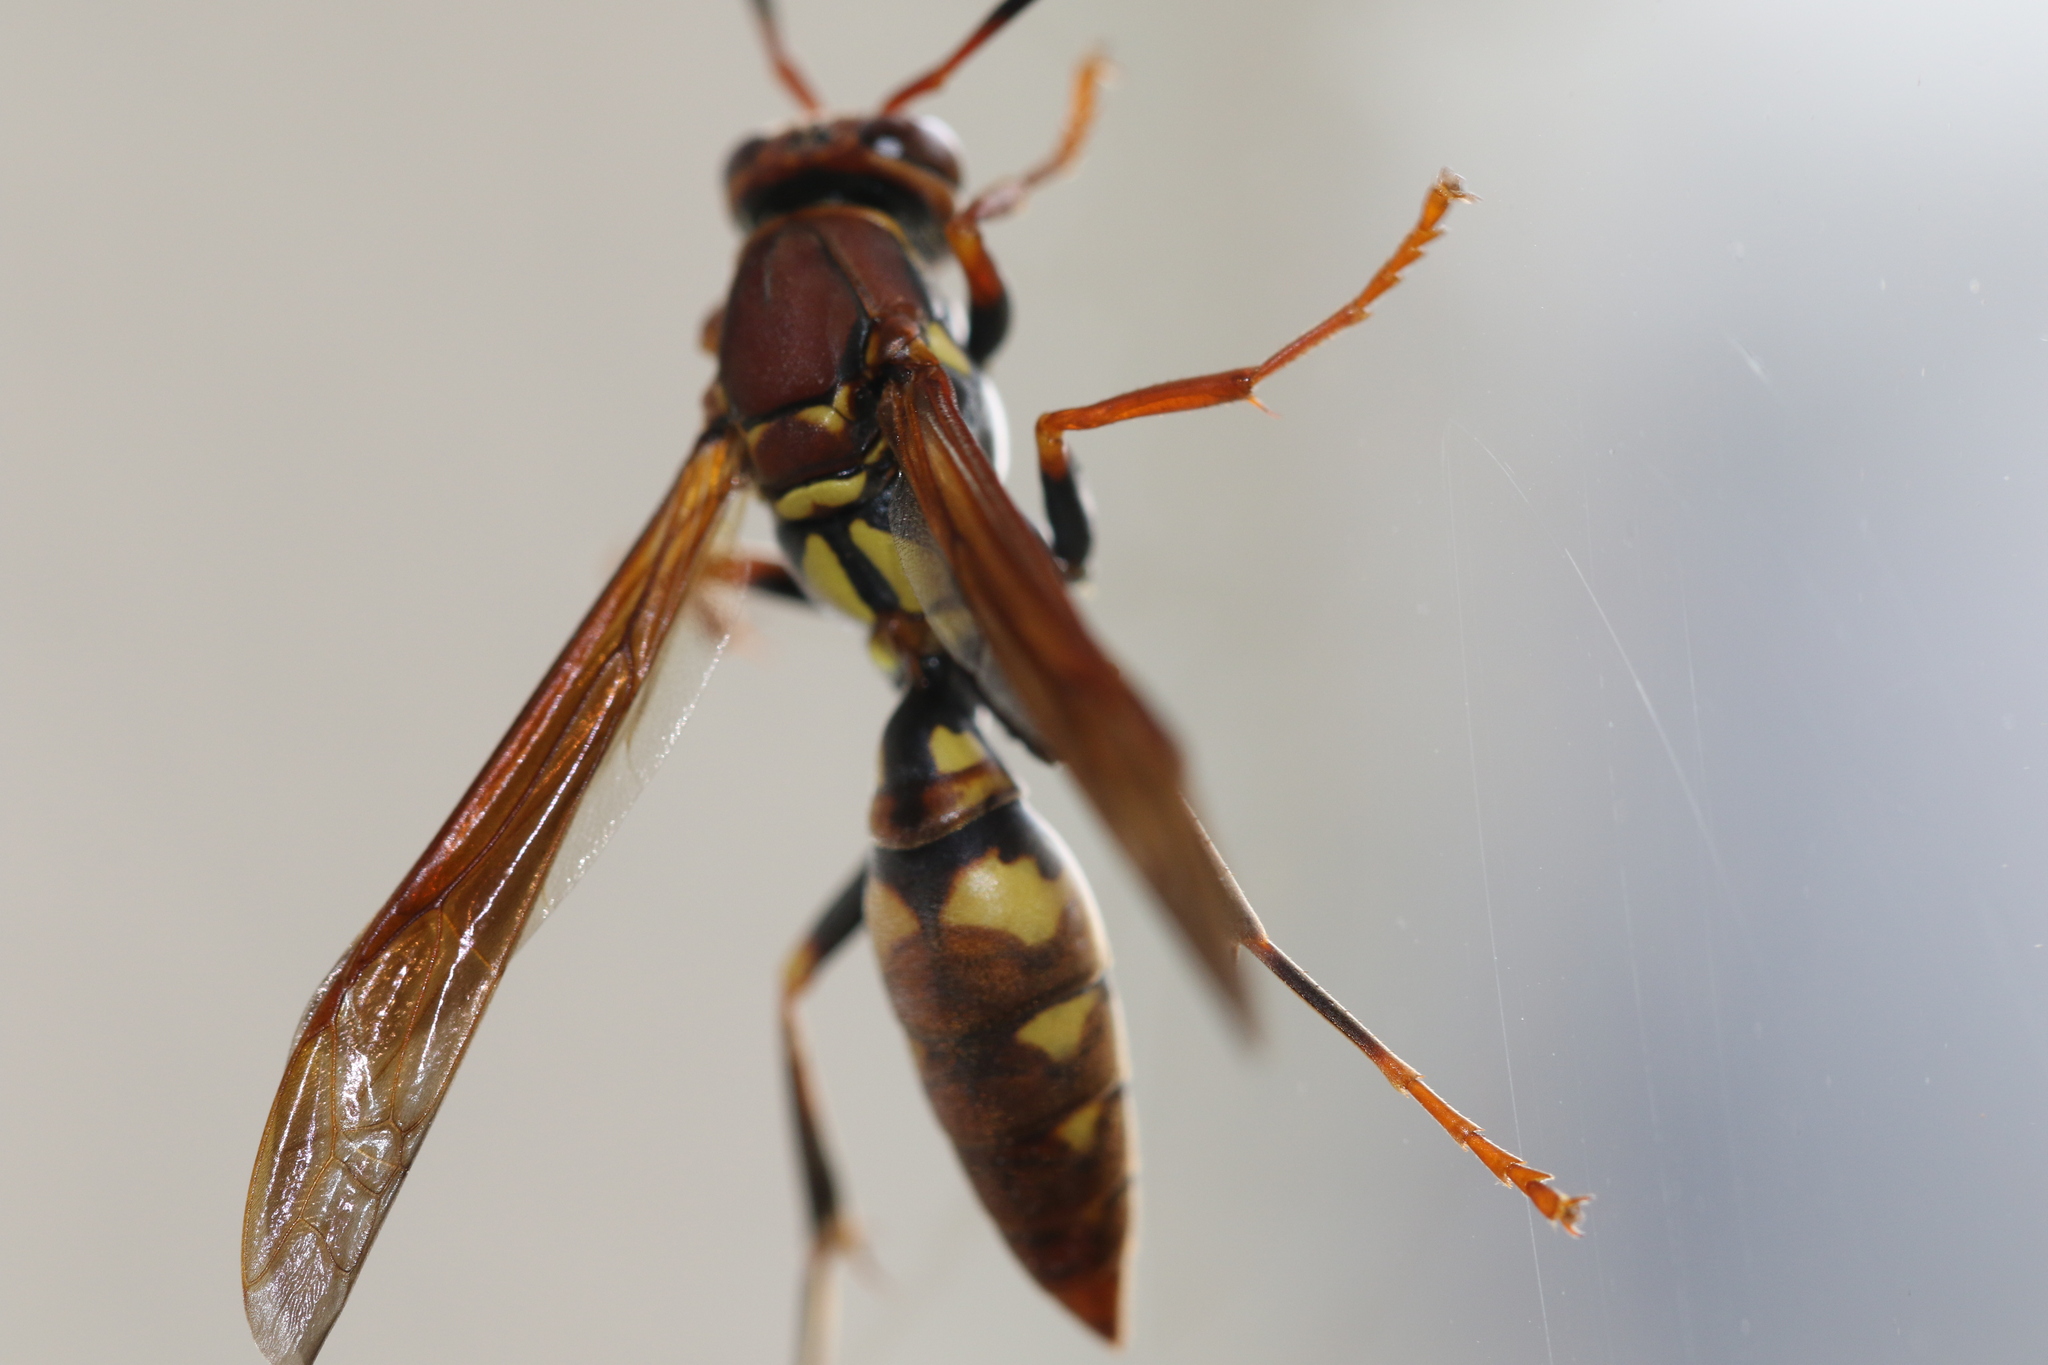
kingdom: Animalia
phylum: Arthropoda
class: Insecta
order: Hymenoptera
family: Eumenidae
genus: Polistes
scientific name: Polistes versicolor
